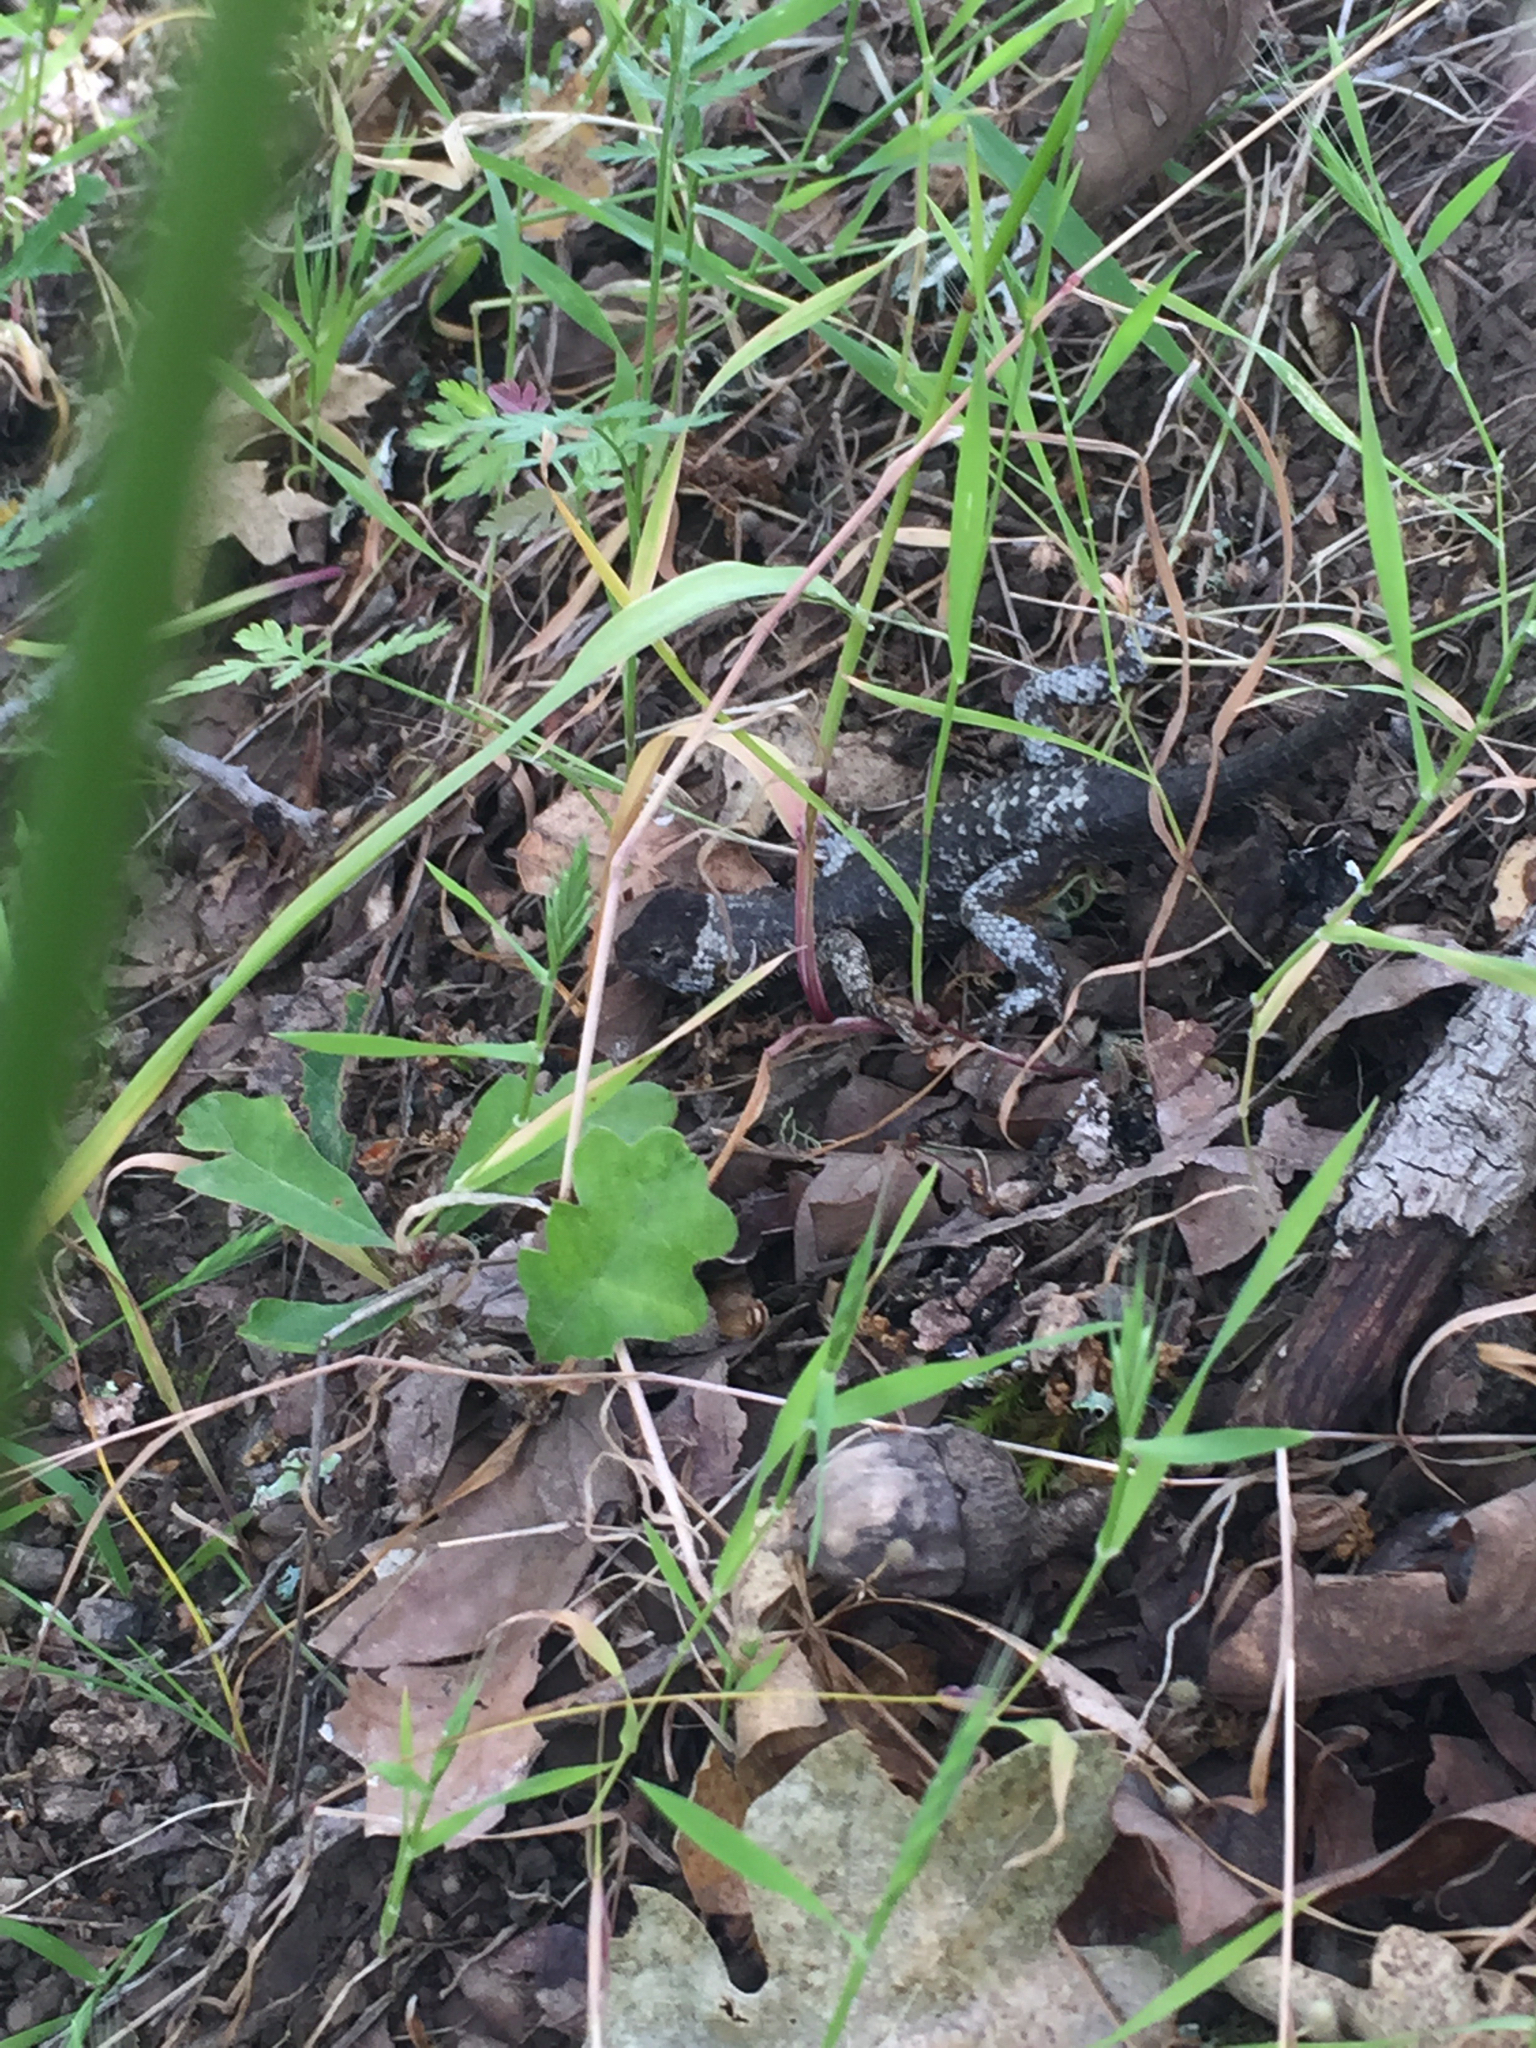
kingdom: Animalia
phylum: Chordata
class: Squamata
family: Phrynosomatidae
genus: Sceloporus
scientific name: Sceloporus occidentalis
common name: Western fence lizard
